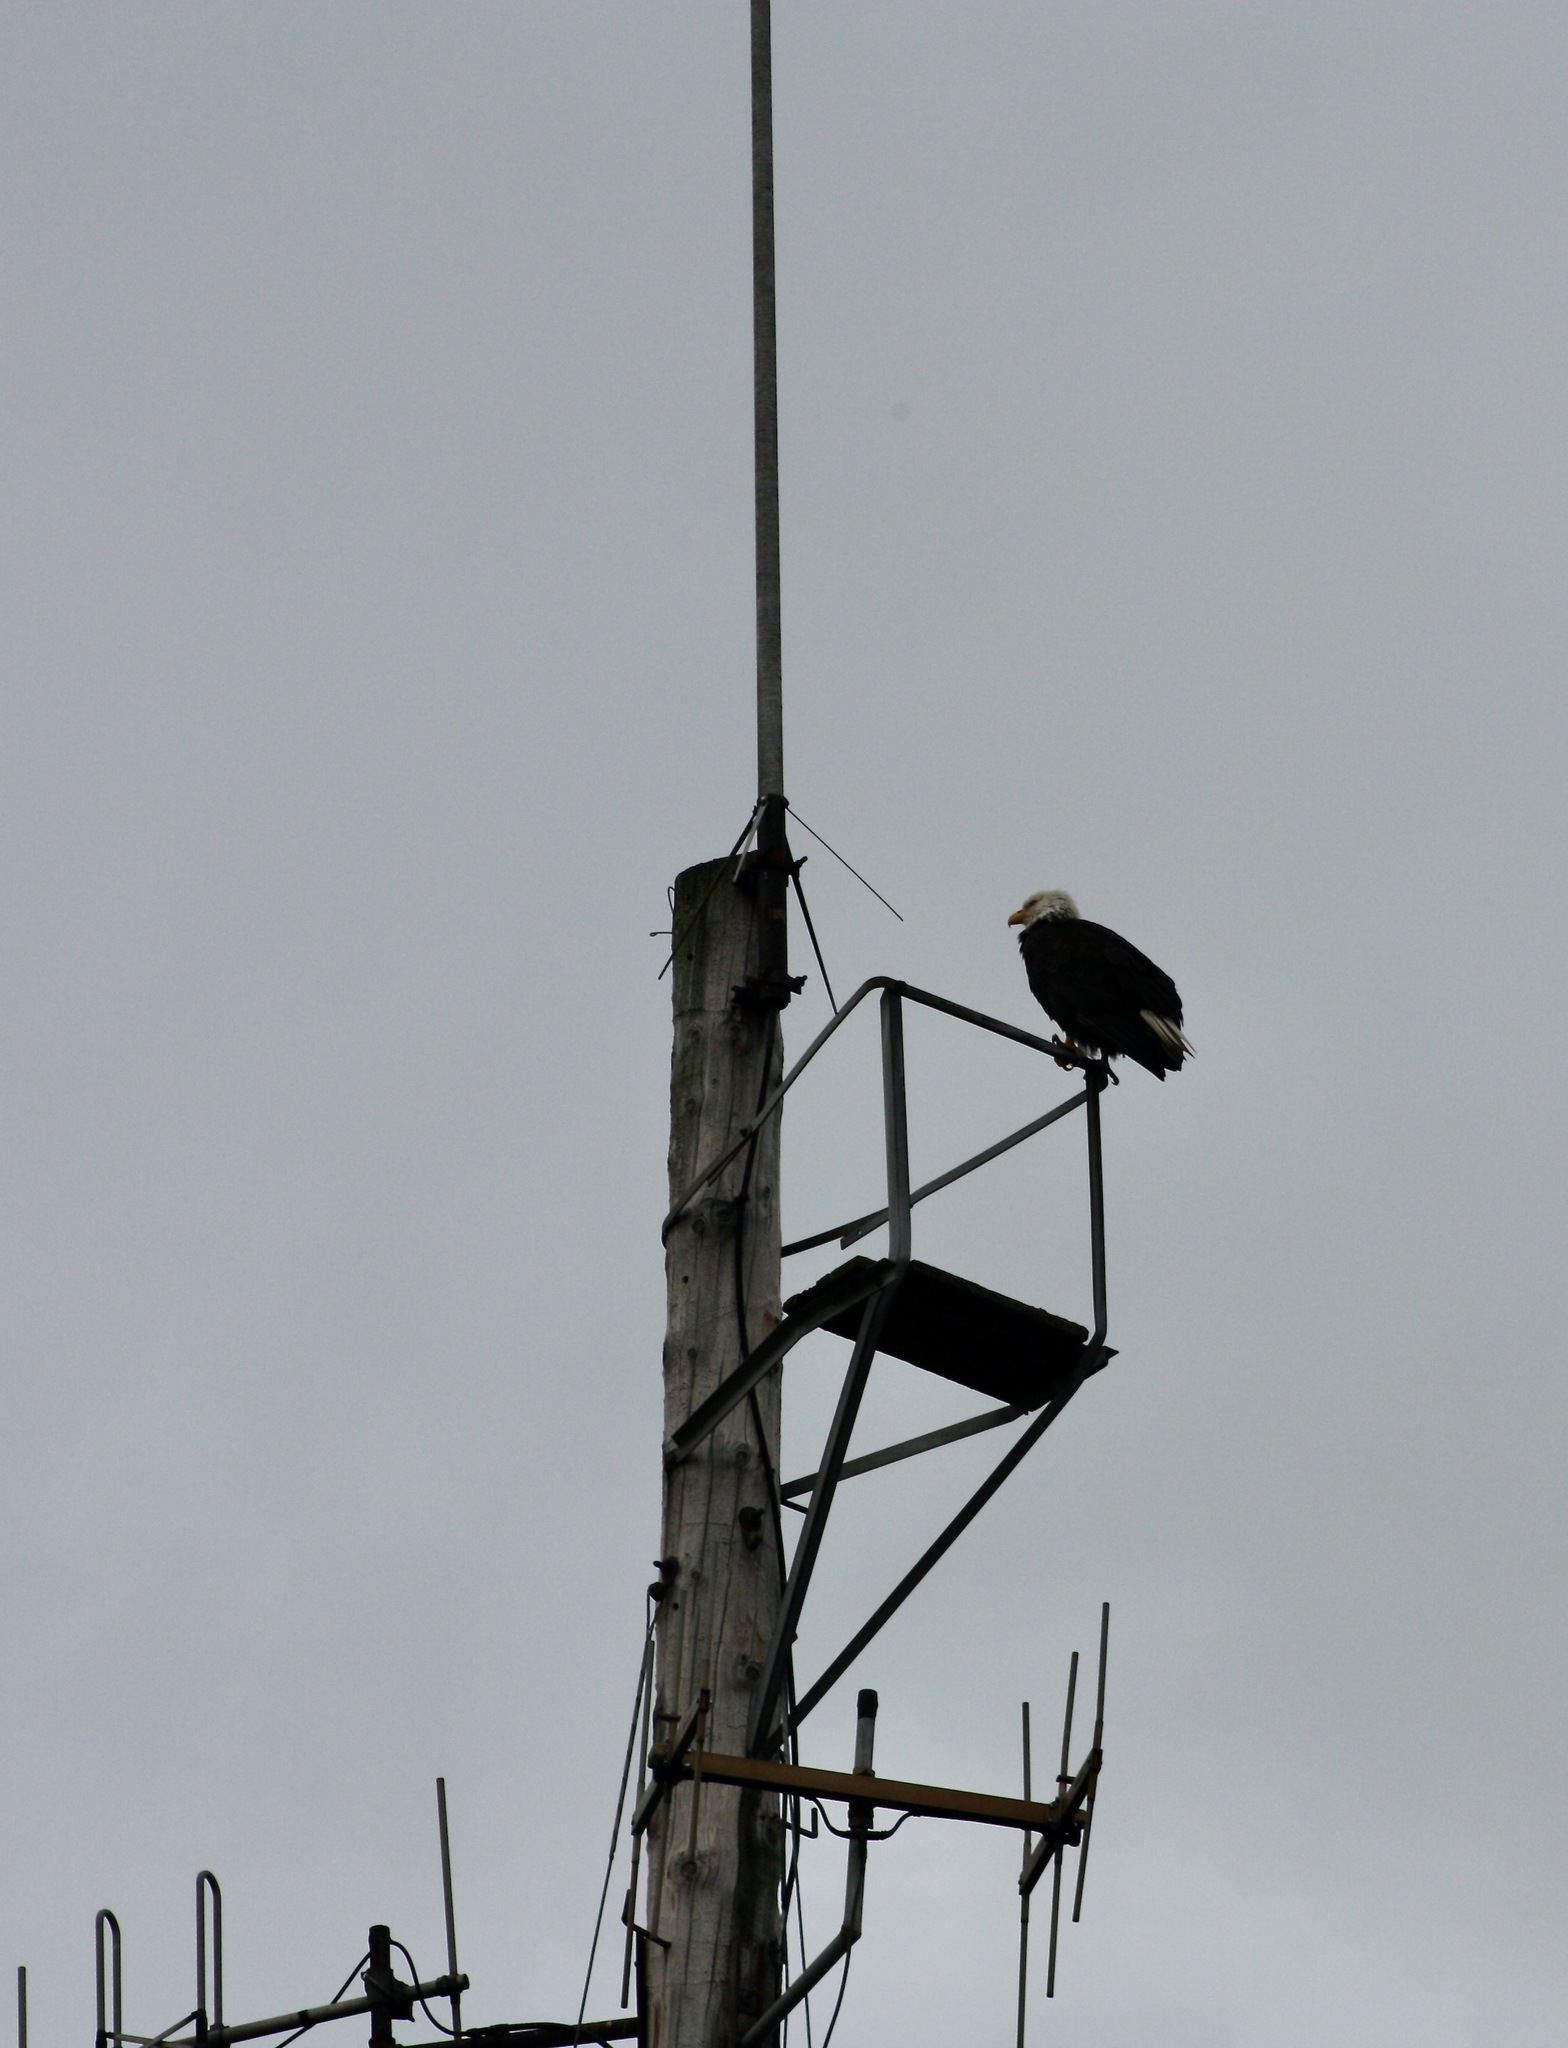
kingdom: Animalia
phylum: Chordata
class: Aves
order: Accipitriformes
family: Accipitridae
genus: Haliaeetus
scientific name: Haliaeetus leucocephalus
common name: Bald eagle
